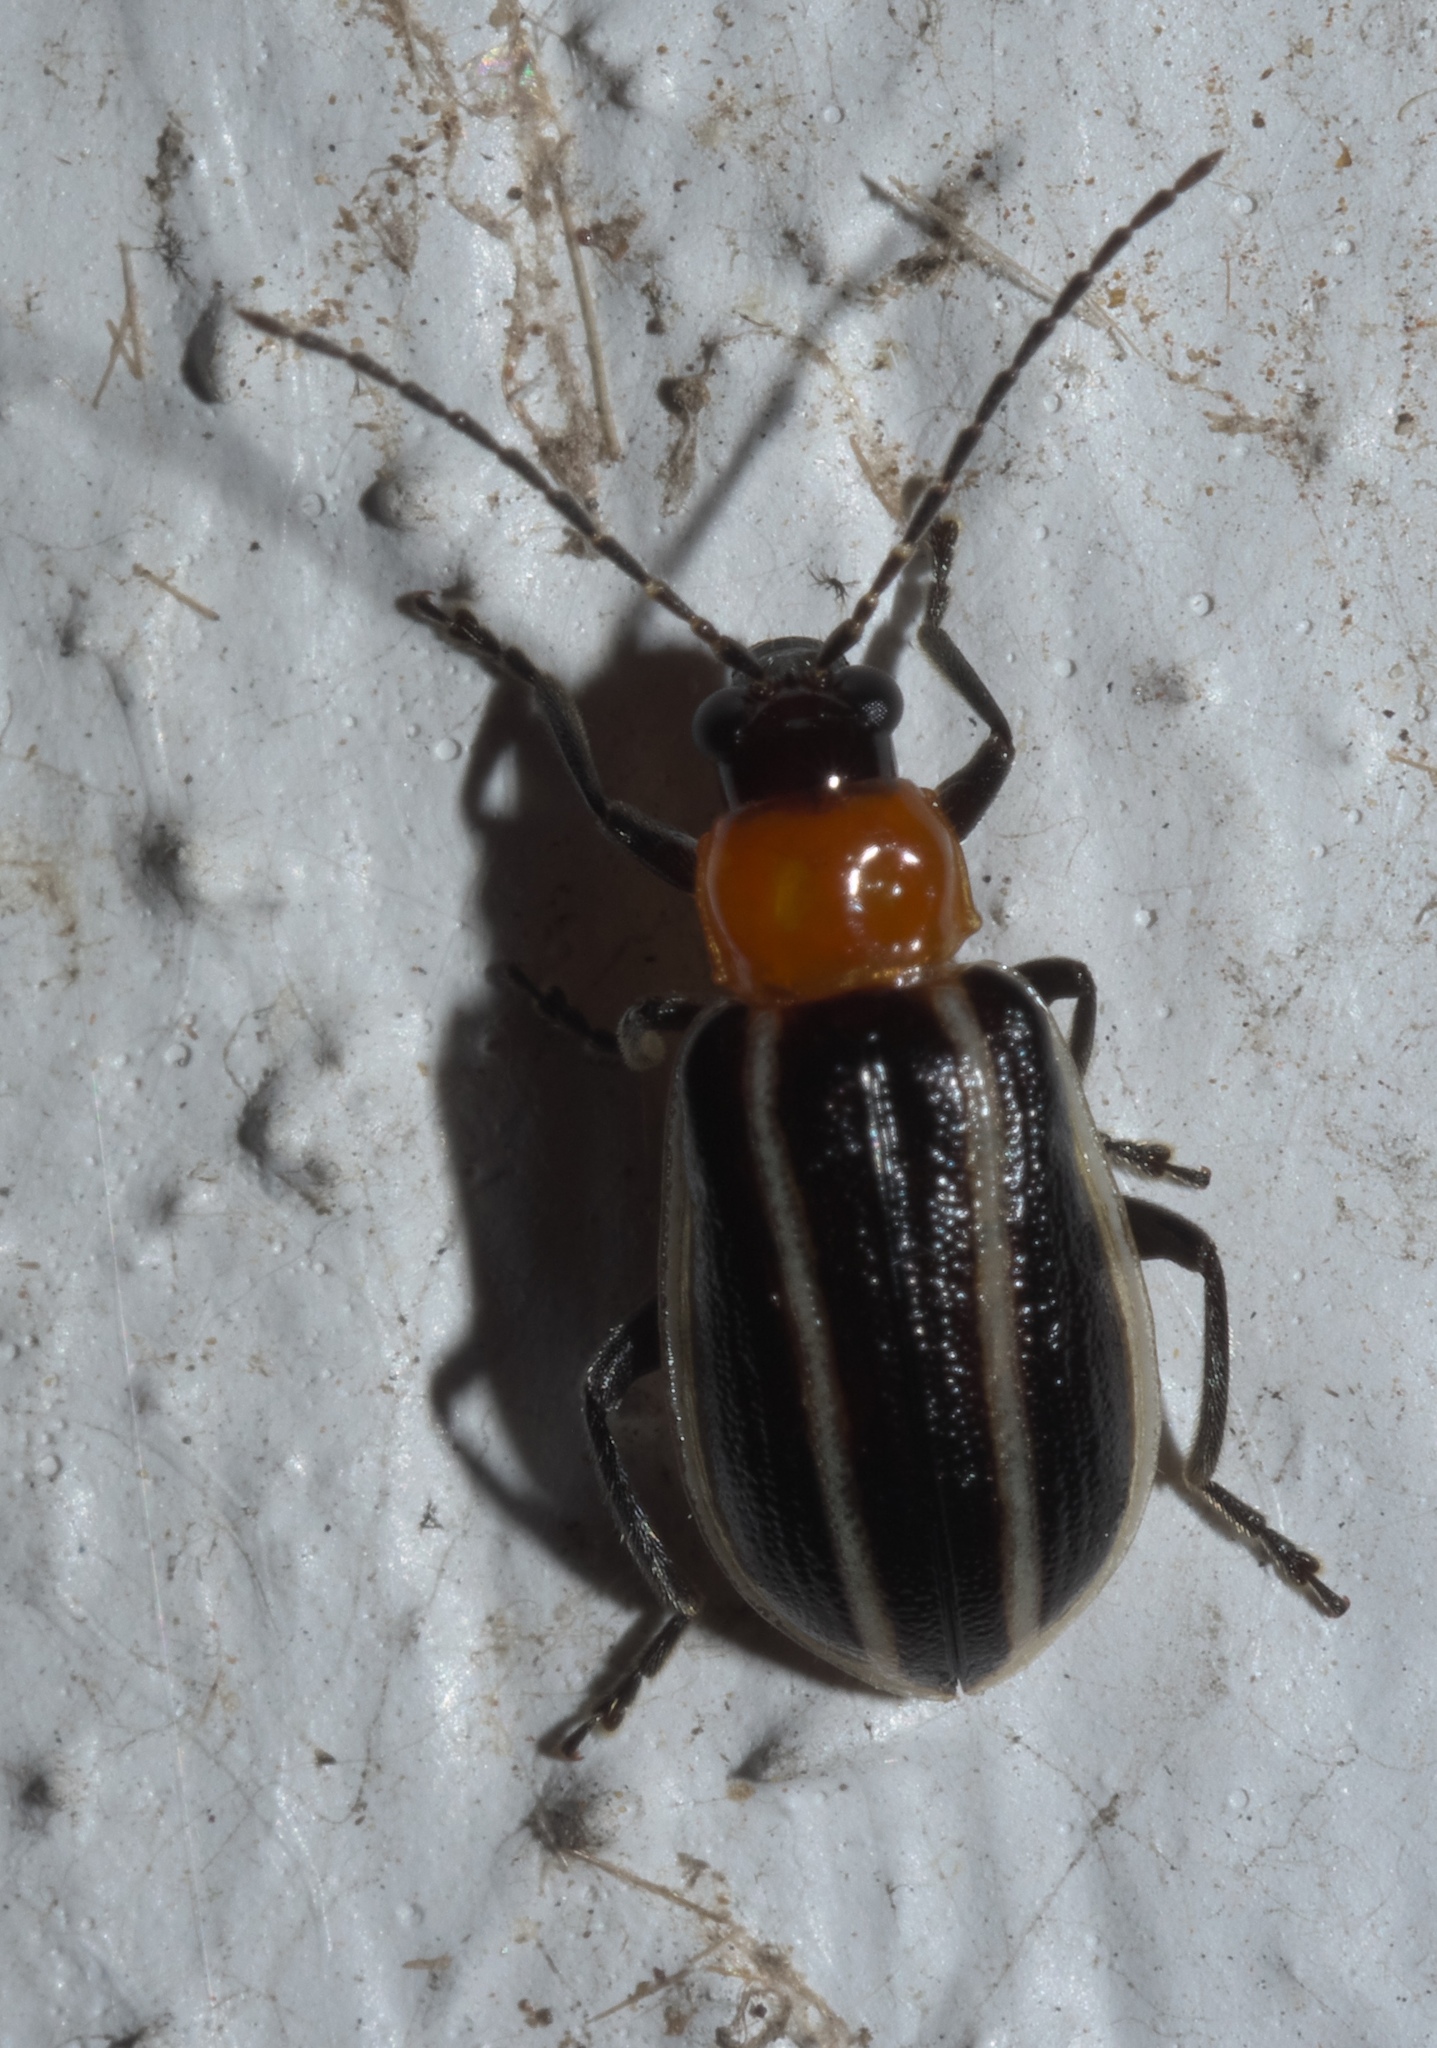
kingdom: Animalia
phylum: Arthropoda
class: Insecta
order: Coleoptera
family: Chrysomelidae
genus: Acalymma
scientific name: Acalymma vinctum
